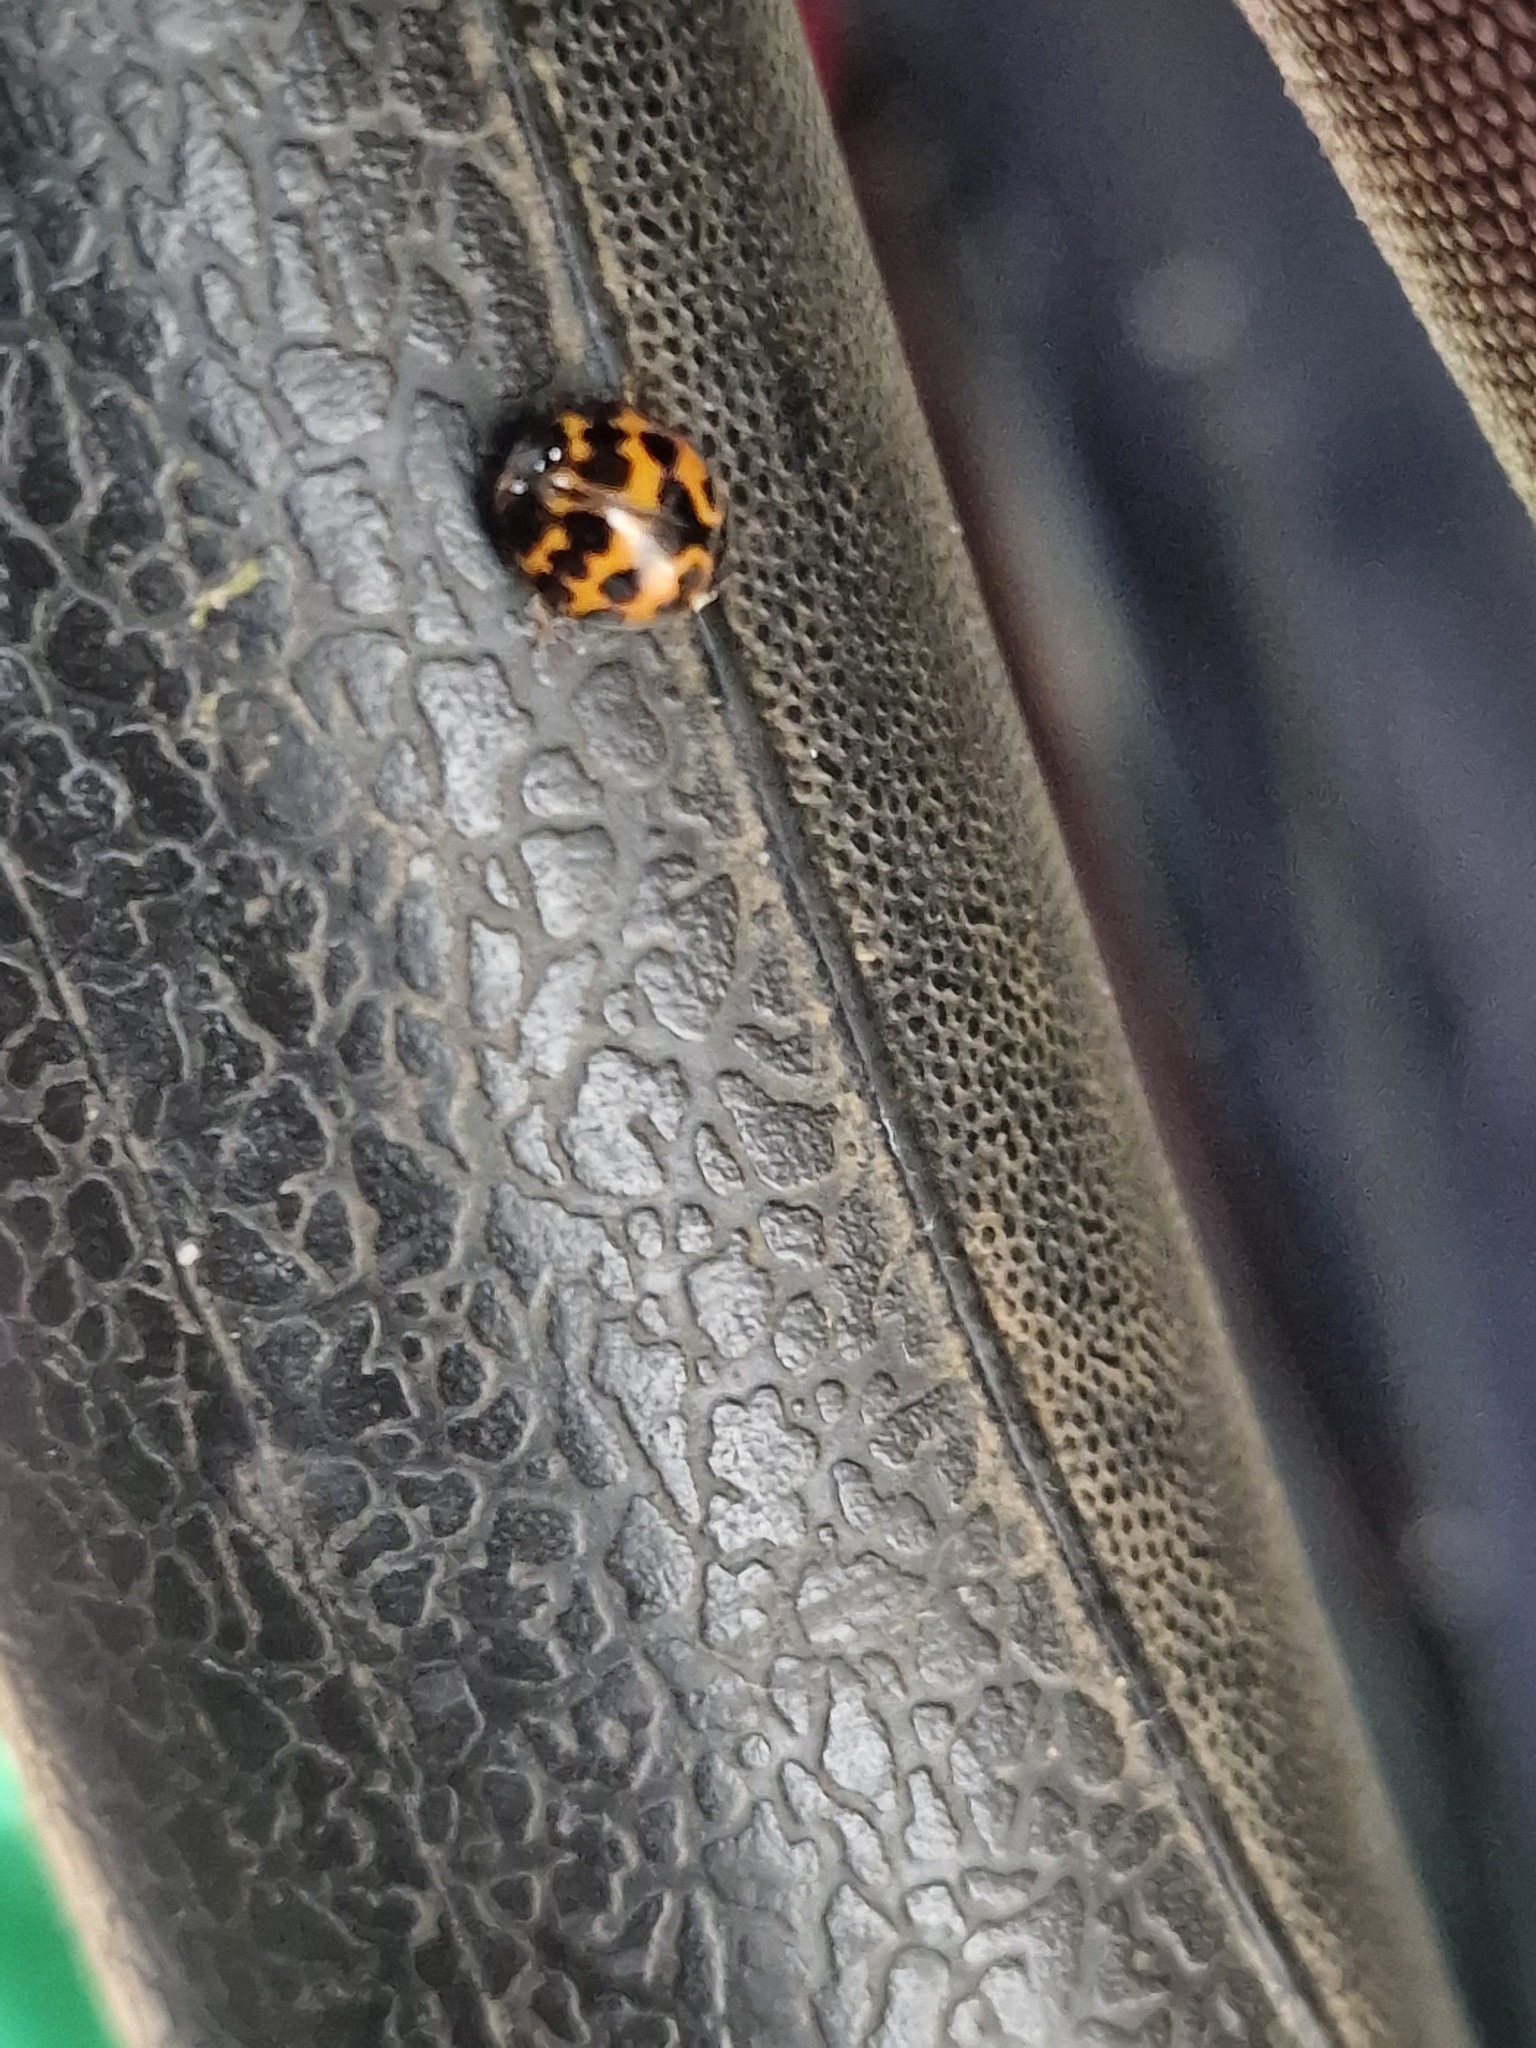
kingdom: Animalia
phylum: Arthropoda
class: Insecta
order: Coleoptera
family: Coccinellidae
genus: Harmonia
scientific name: Harmonia axyridis
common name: Harlequin ladybird
